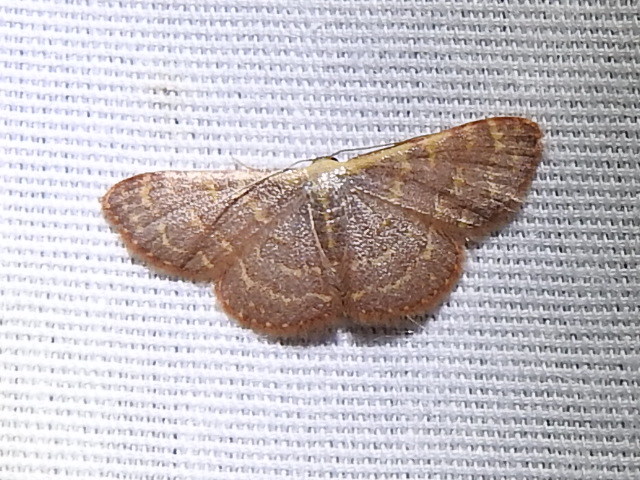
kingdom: Animalia
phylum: Arthropoda
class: Insecta
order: Lepidoptera
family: Geometridae
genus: Leptostales
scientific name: Leptostales pannaria
